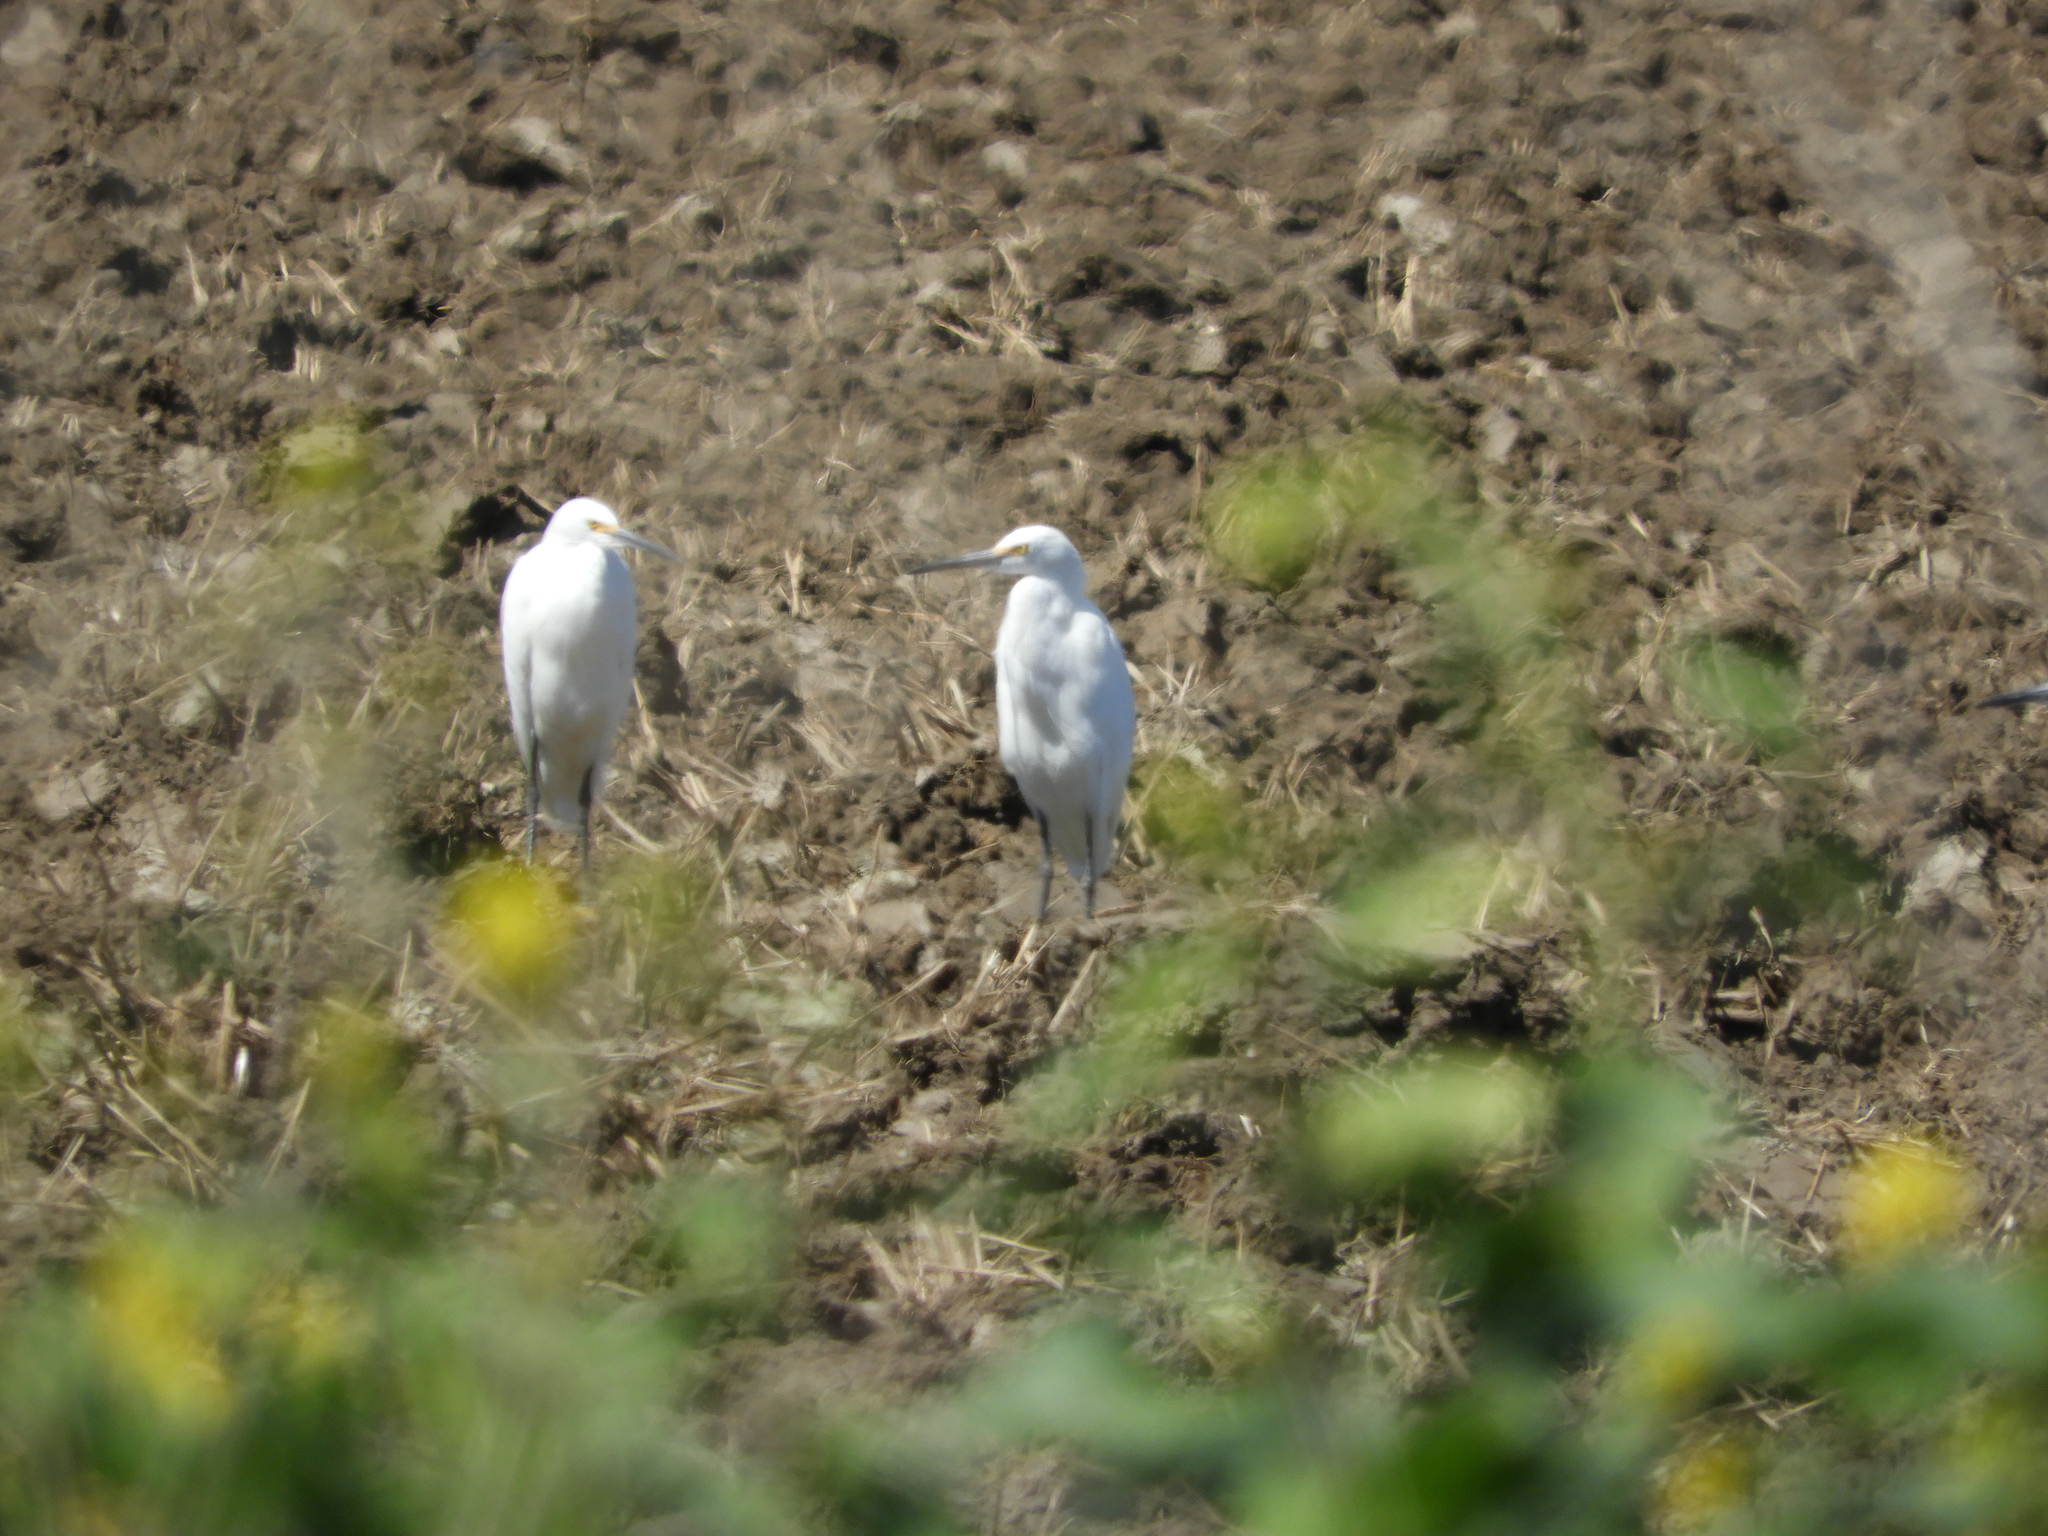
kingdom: Animalia
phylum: Chordata
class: Aves
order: Pelecaniformes
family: Ardeidae
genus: Egretta
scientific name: Egretta thula
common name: Snowy egret
